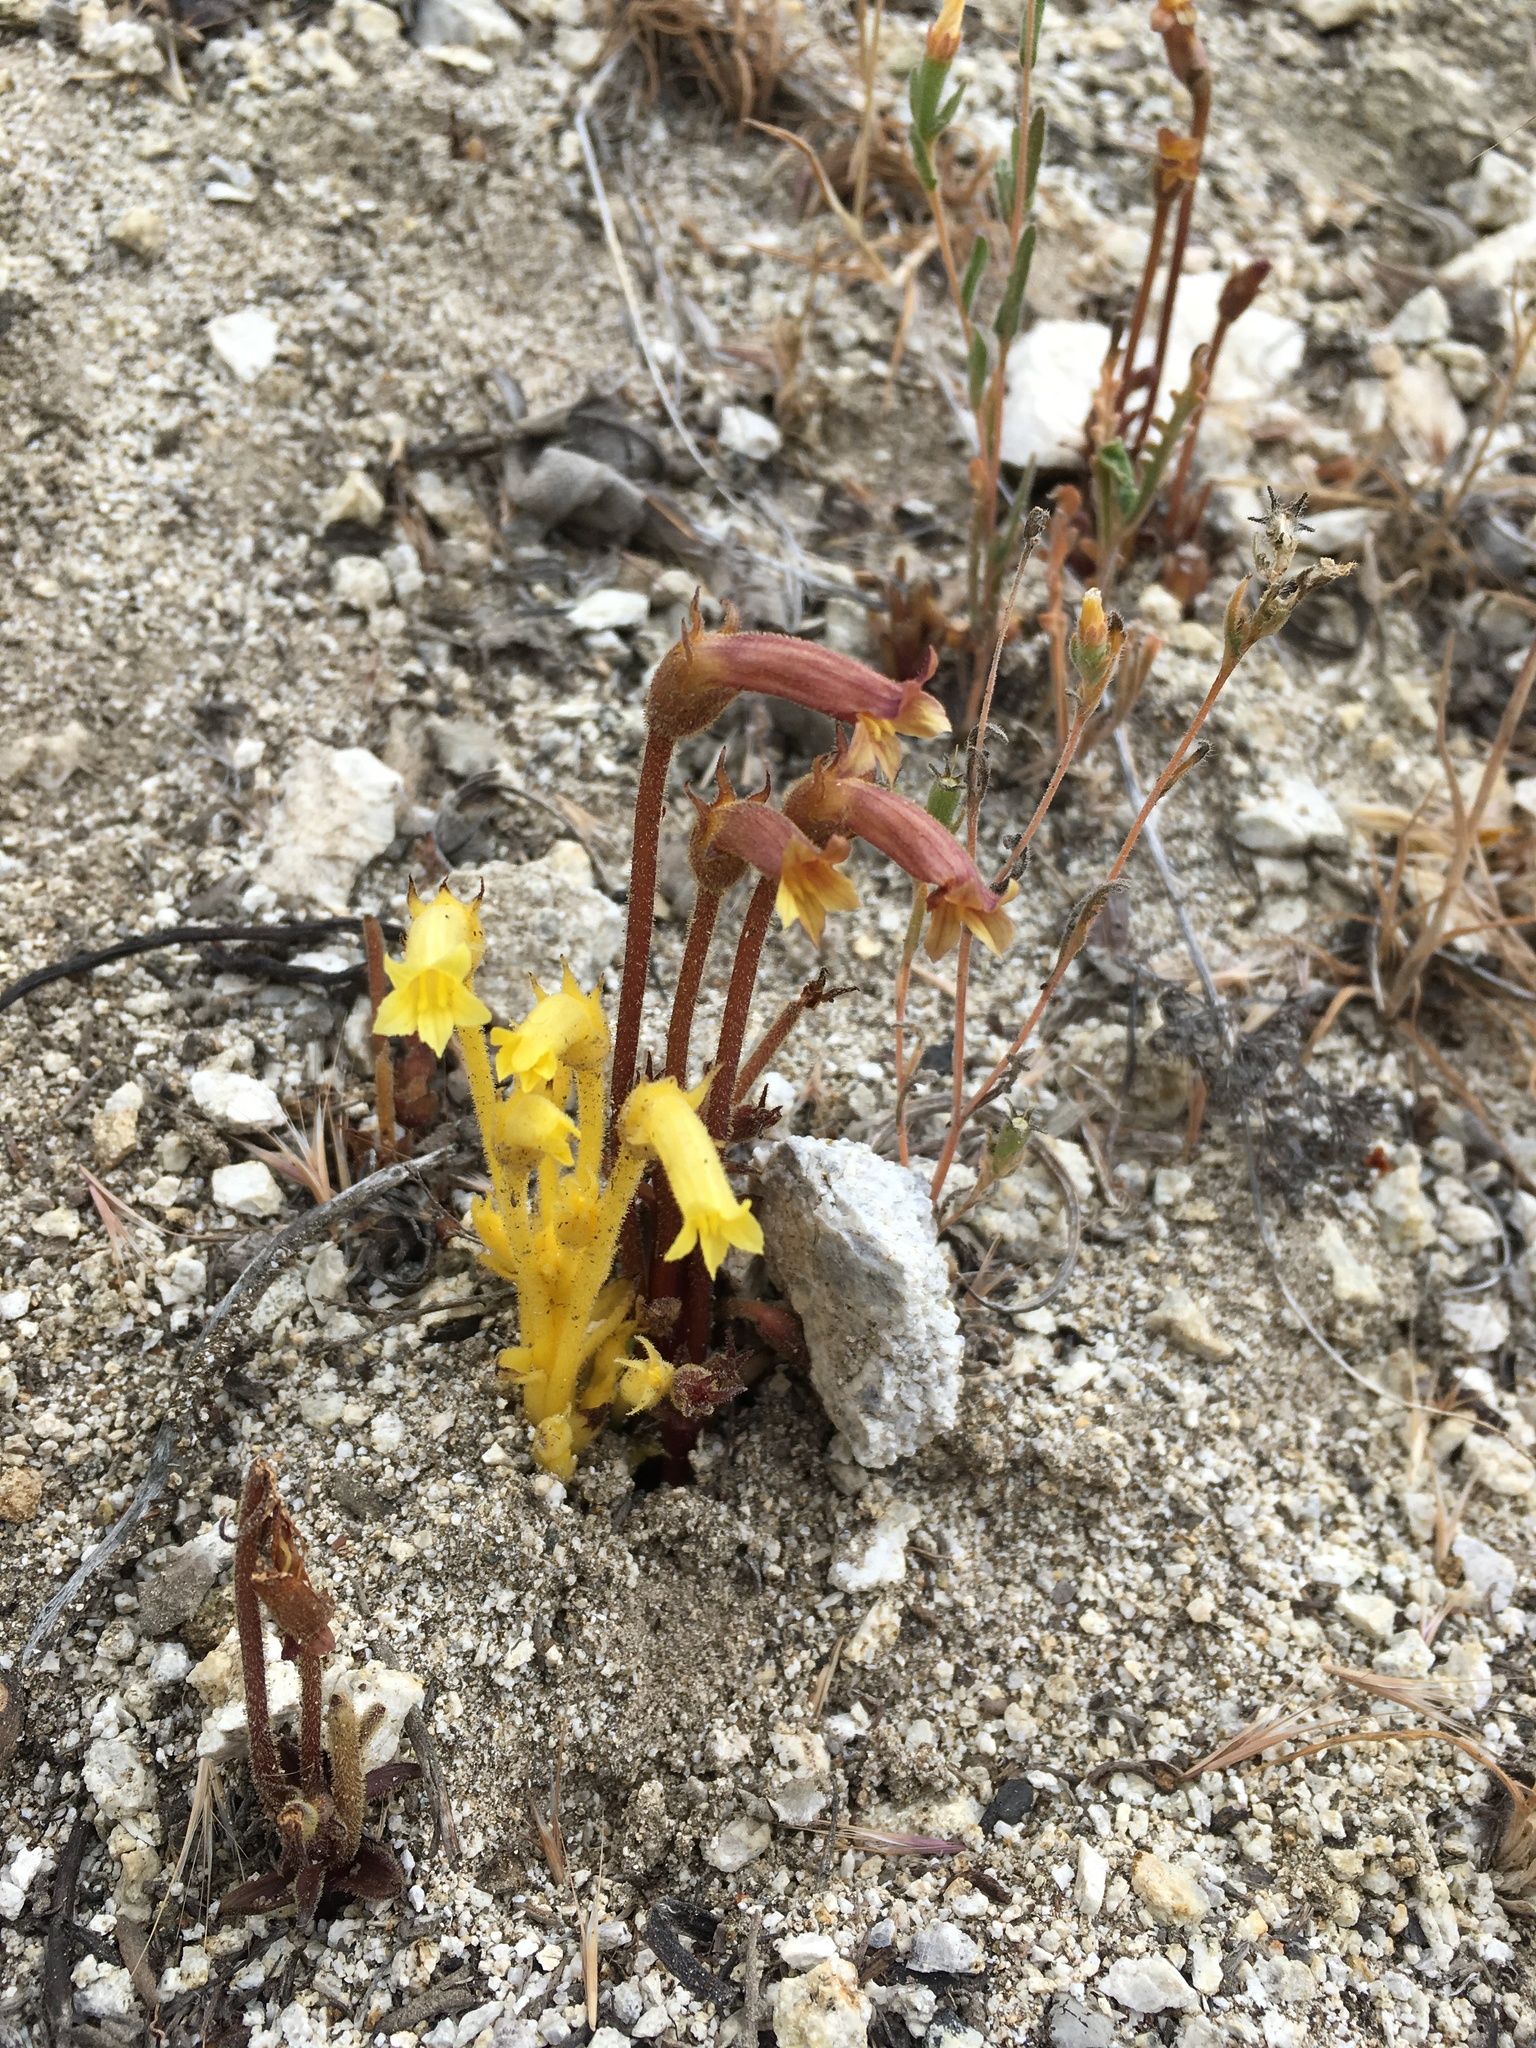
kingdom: Plantae
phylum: Tracheophyta
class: Magnoliopsida
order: Lamiales
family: Orobanchaceae
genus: Aphyllon
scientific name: Aphyllon franciscanum
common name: San francisco broomrape
